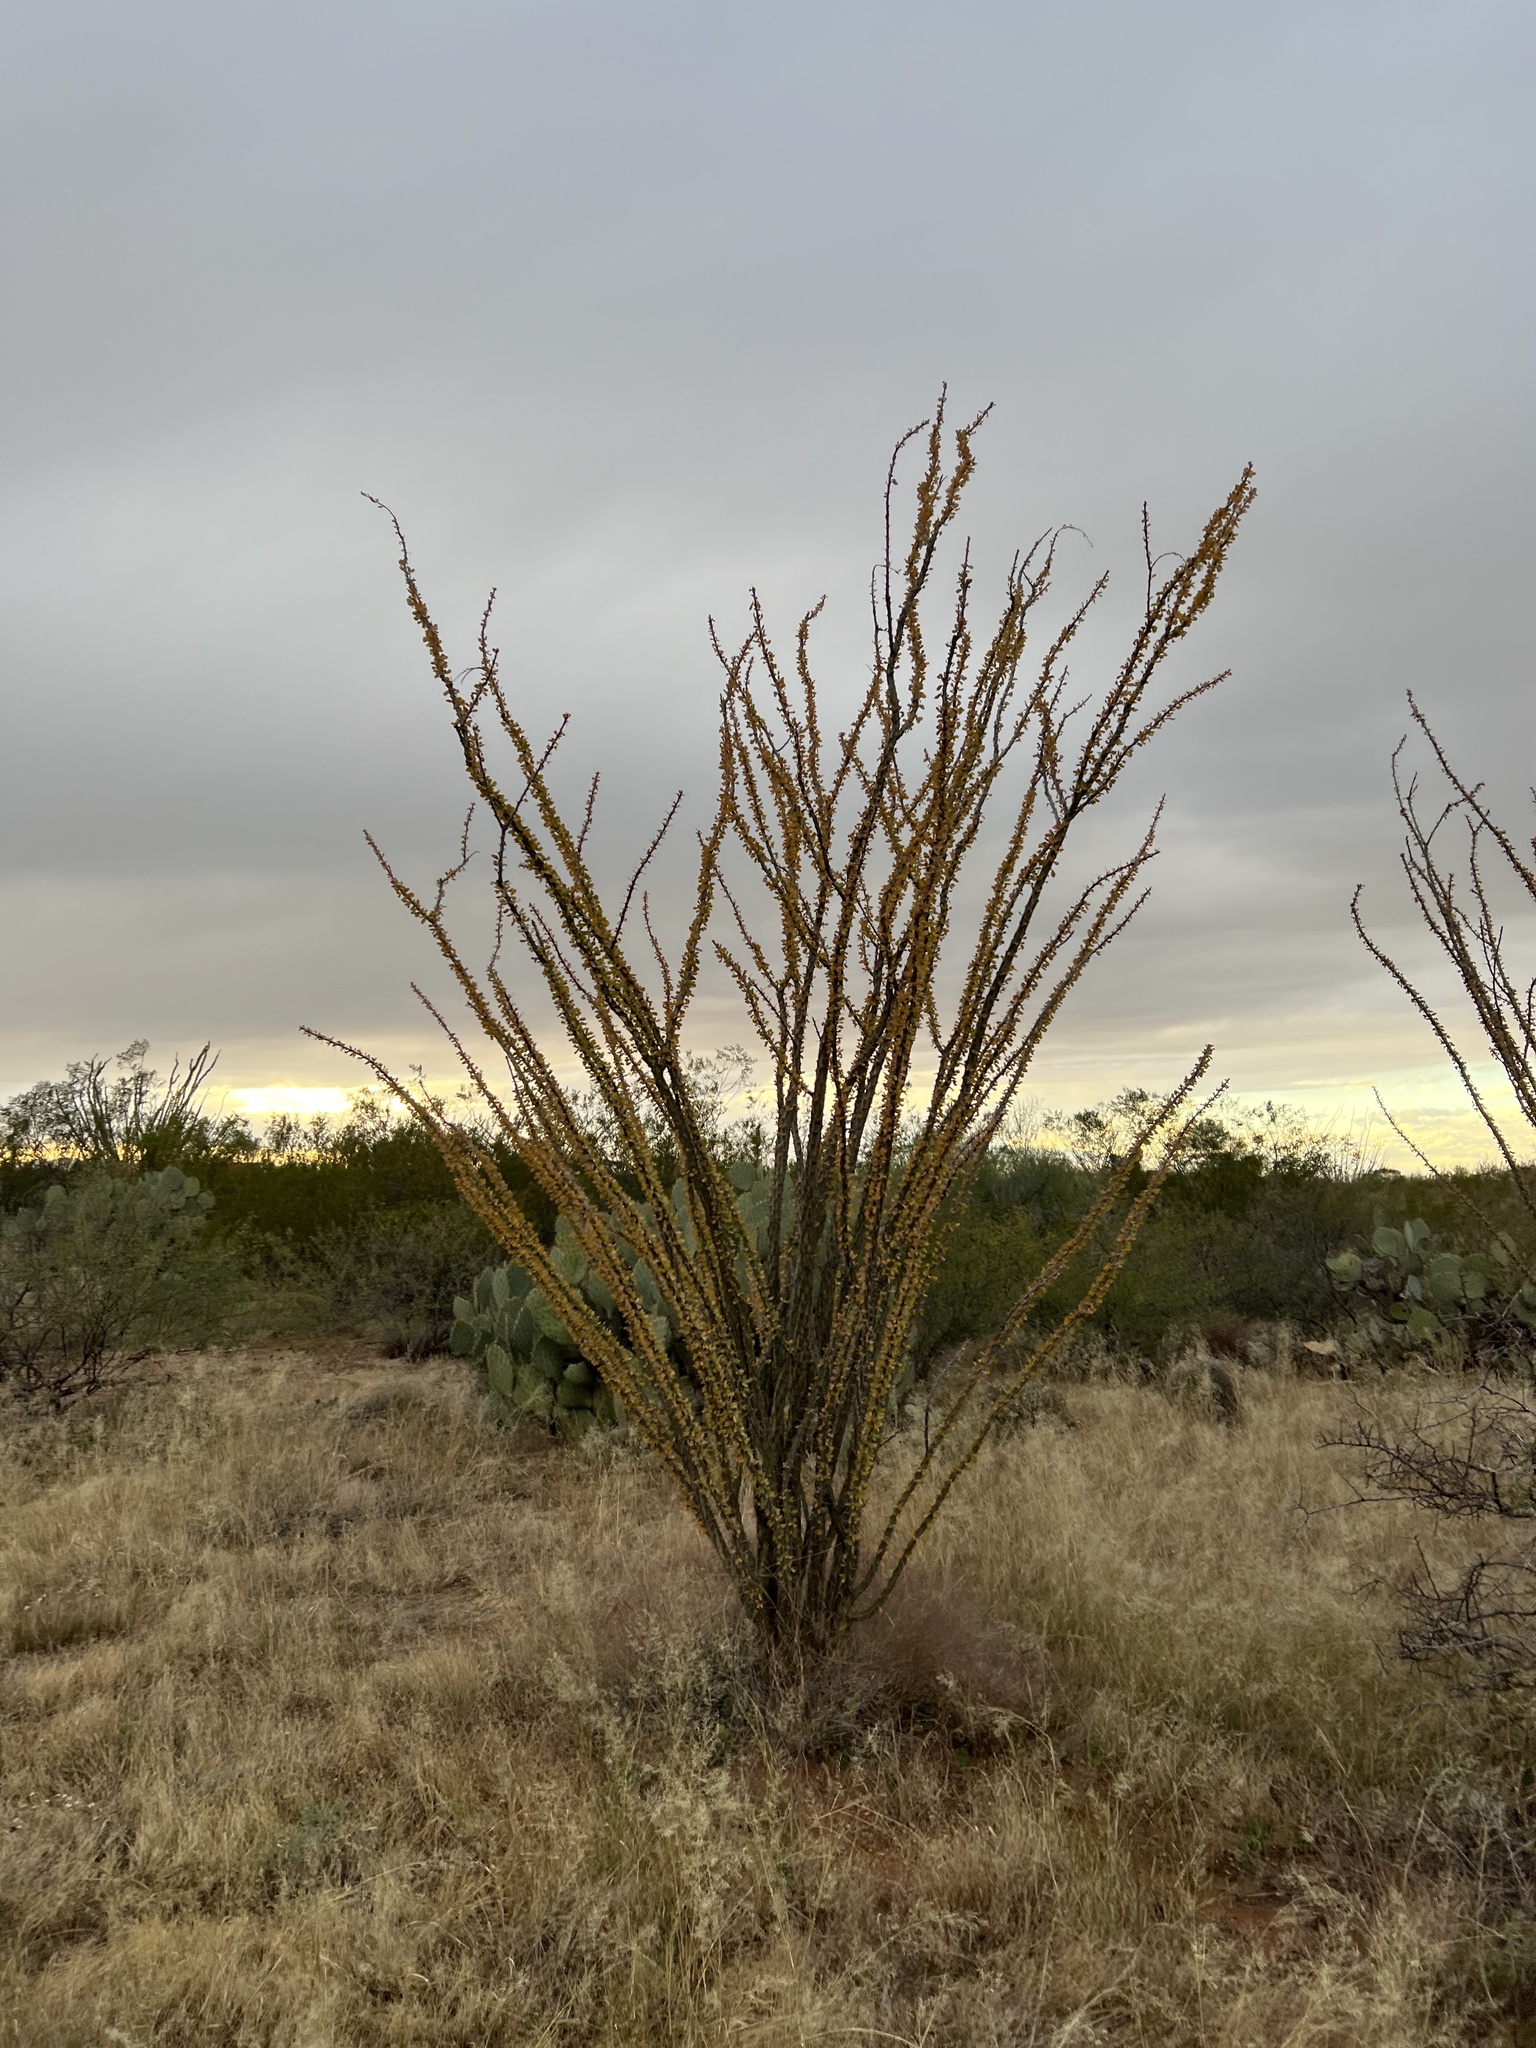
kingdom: Plantae
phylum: Tracheophyta
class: Magnoliopsida
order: Ericales
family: Fouquieriaceae
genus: Fouquieria
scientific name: Fouquieria splendens
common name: Vine-cactus
